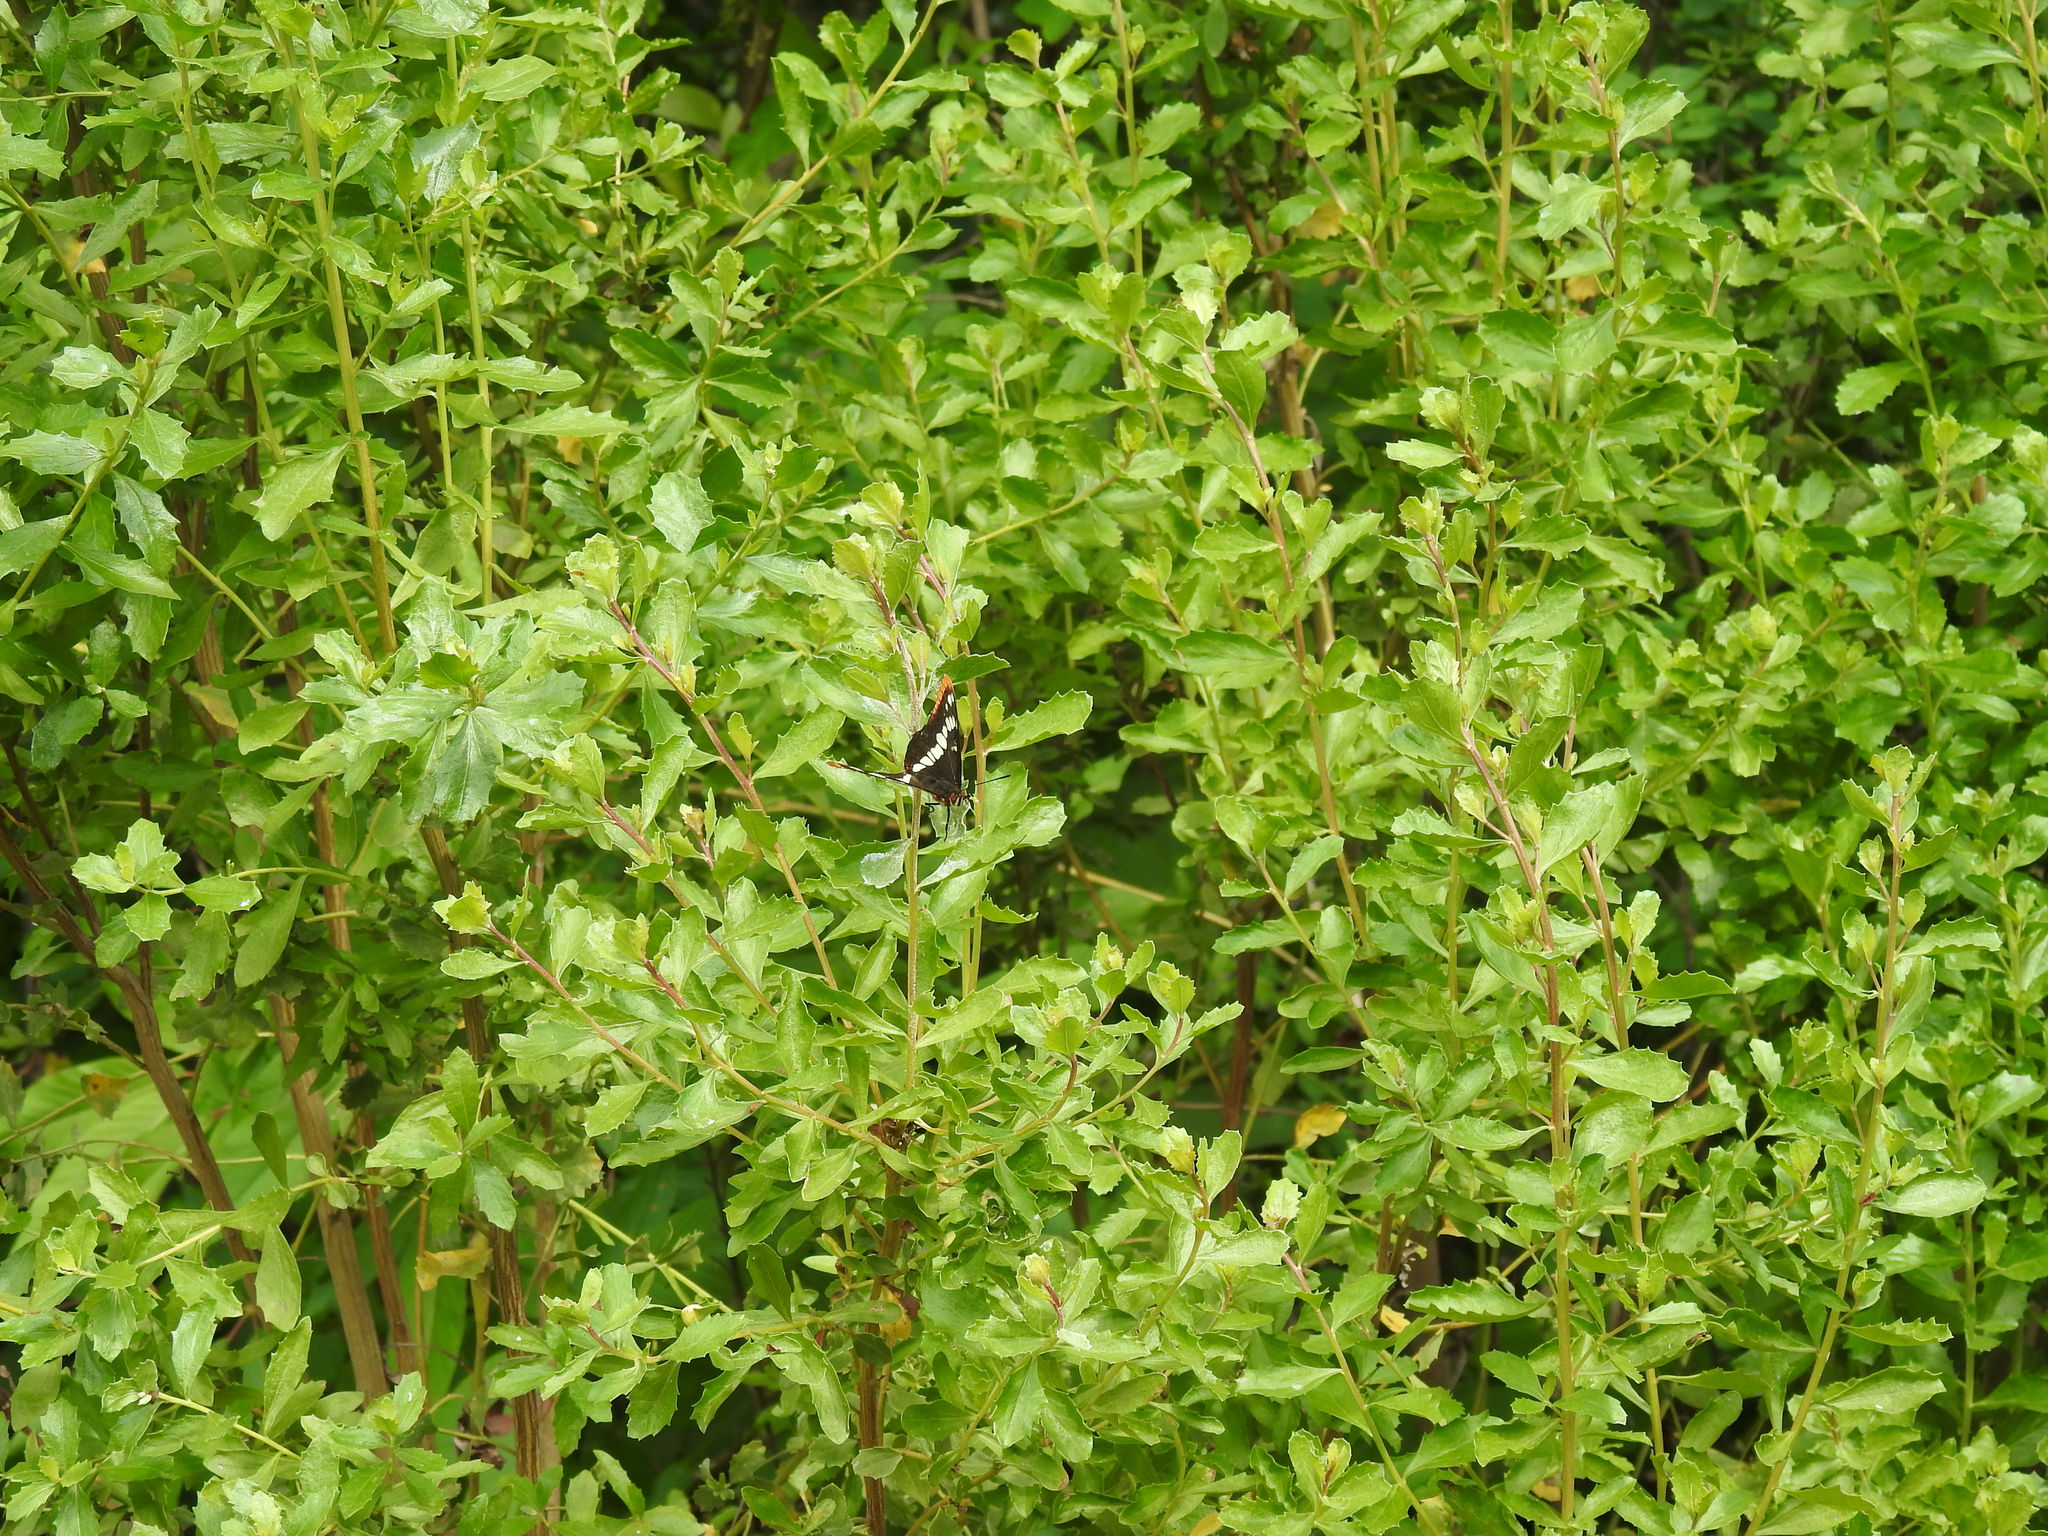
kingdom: Plantae
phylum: Tracheophyta
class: Magnoliopsida
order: Asterales
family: Asteraceae
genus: Baccharis
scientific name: Baccharis pilularis
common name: Coyotebrush
